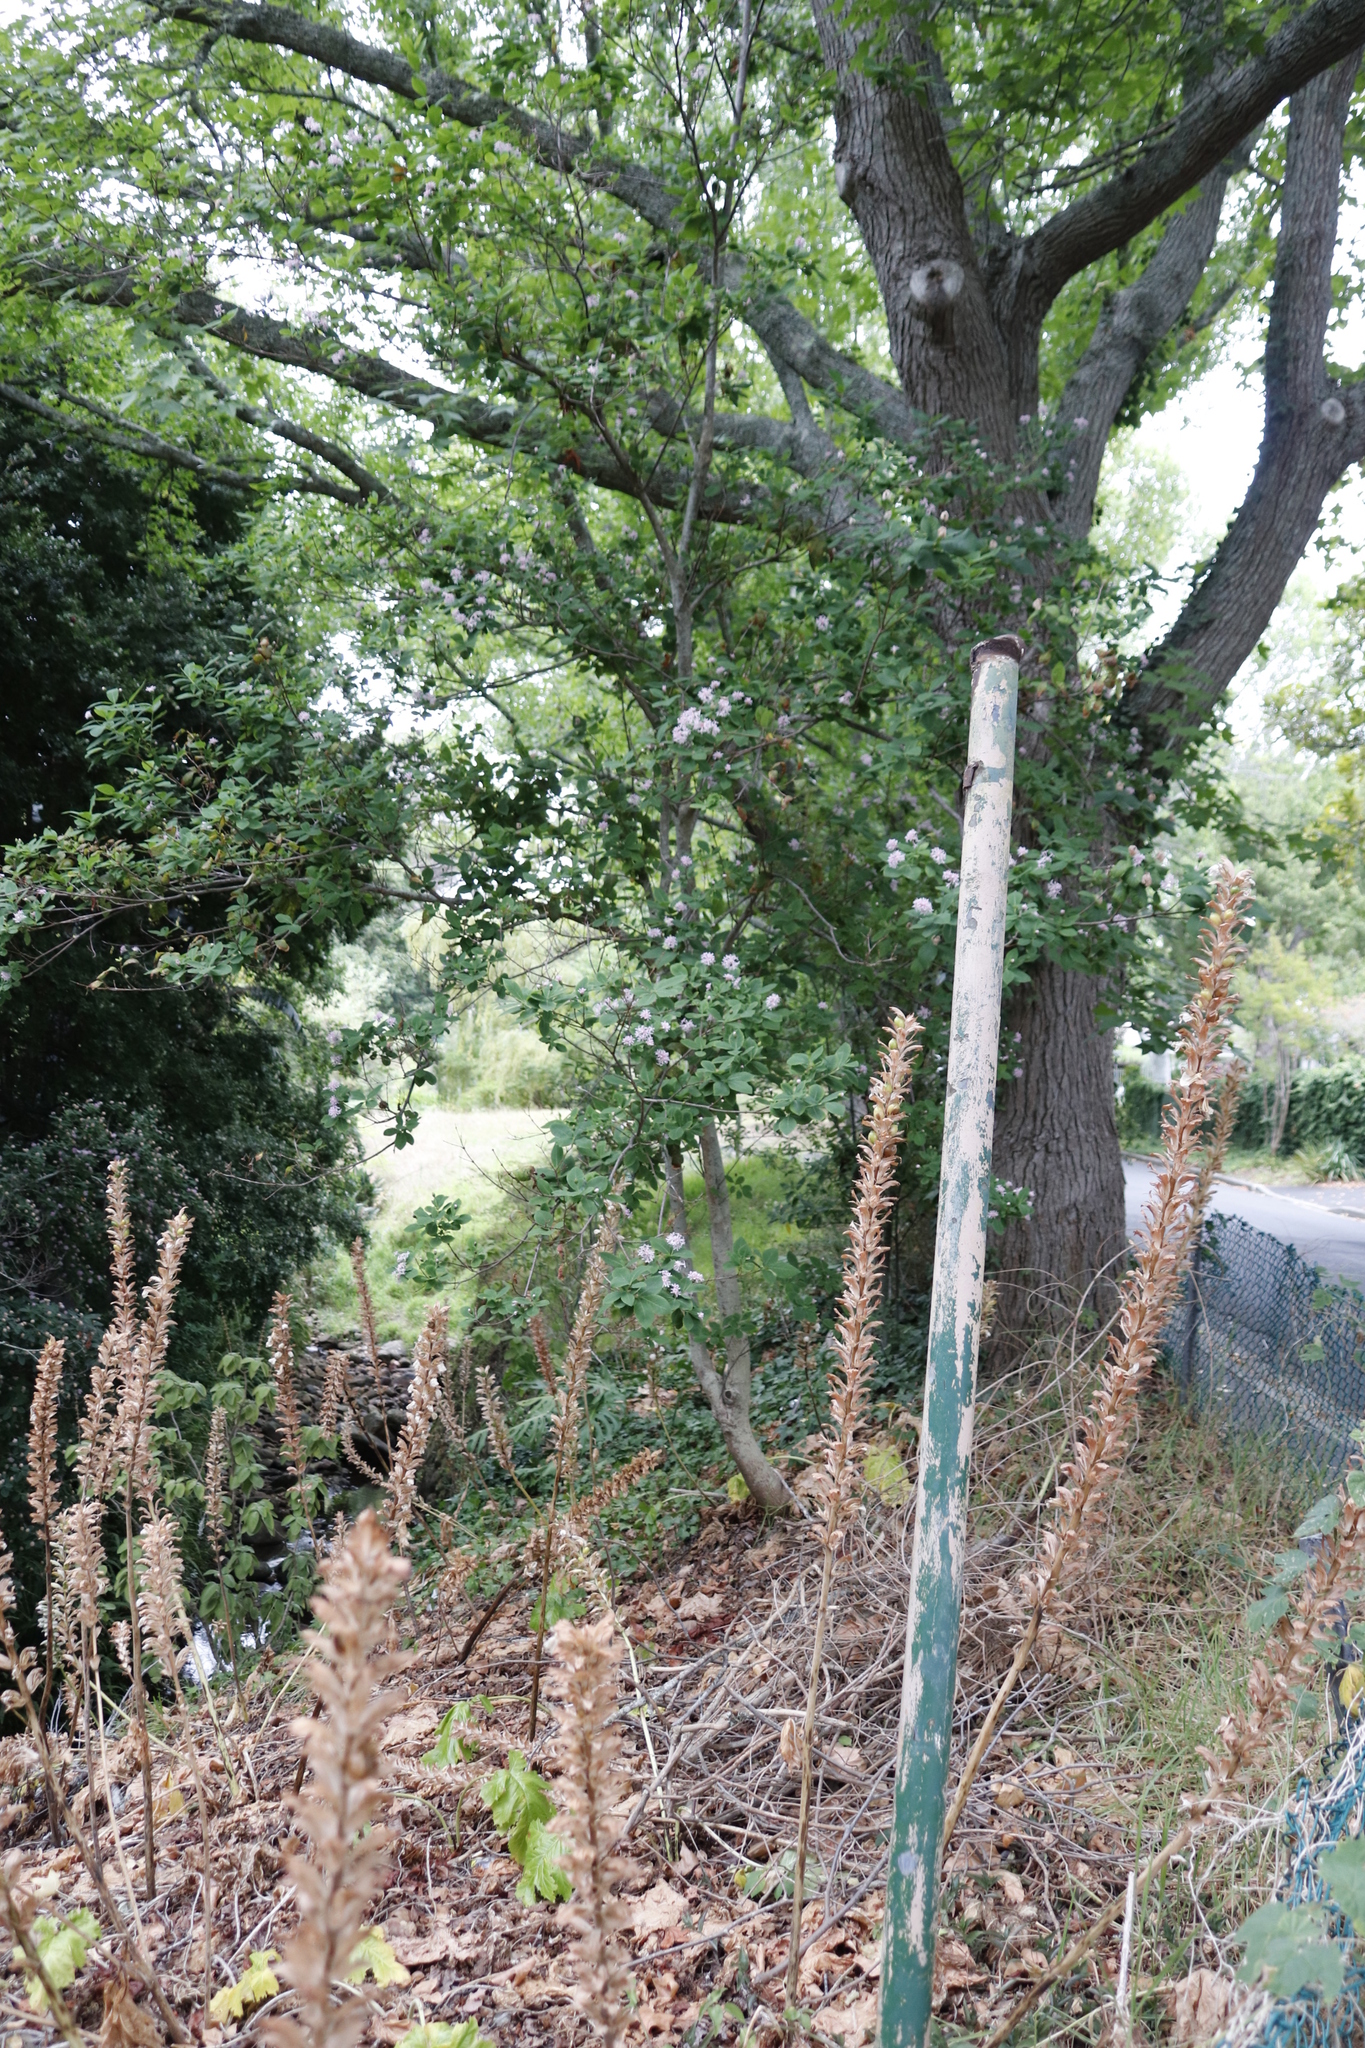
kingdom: Plantae
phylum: Tracheophyta
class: Magnoliopsida
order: Lamiales
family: Acanthaceae
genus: Acanthus
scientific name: Acanthus mollis
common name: Bear's-breech
